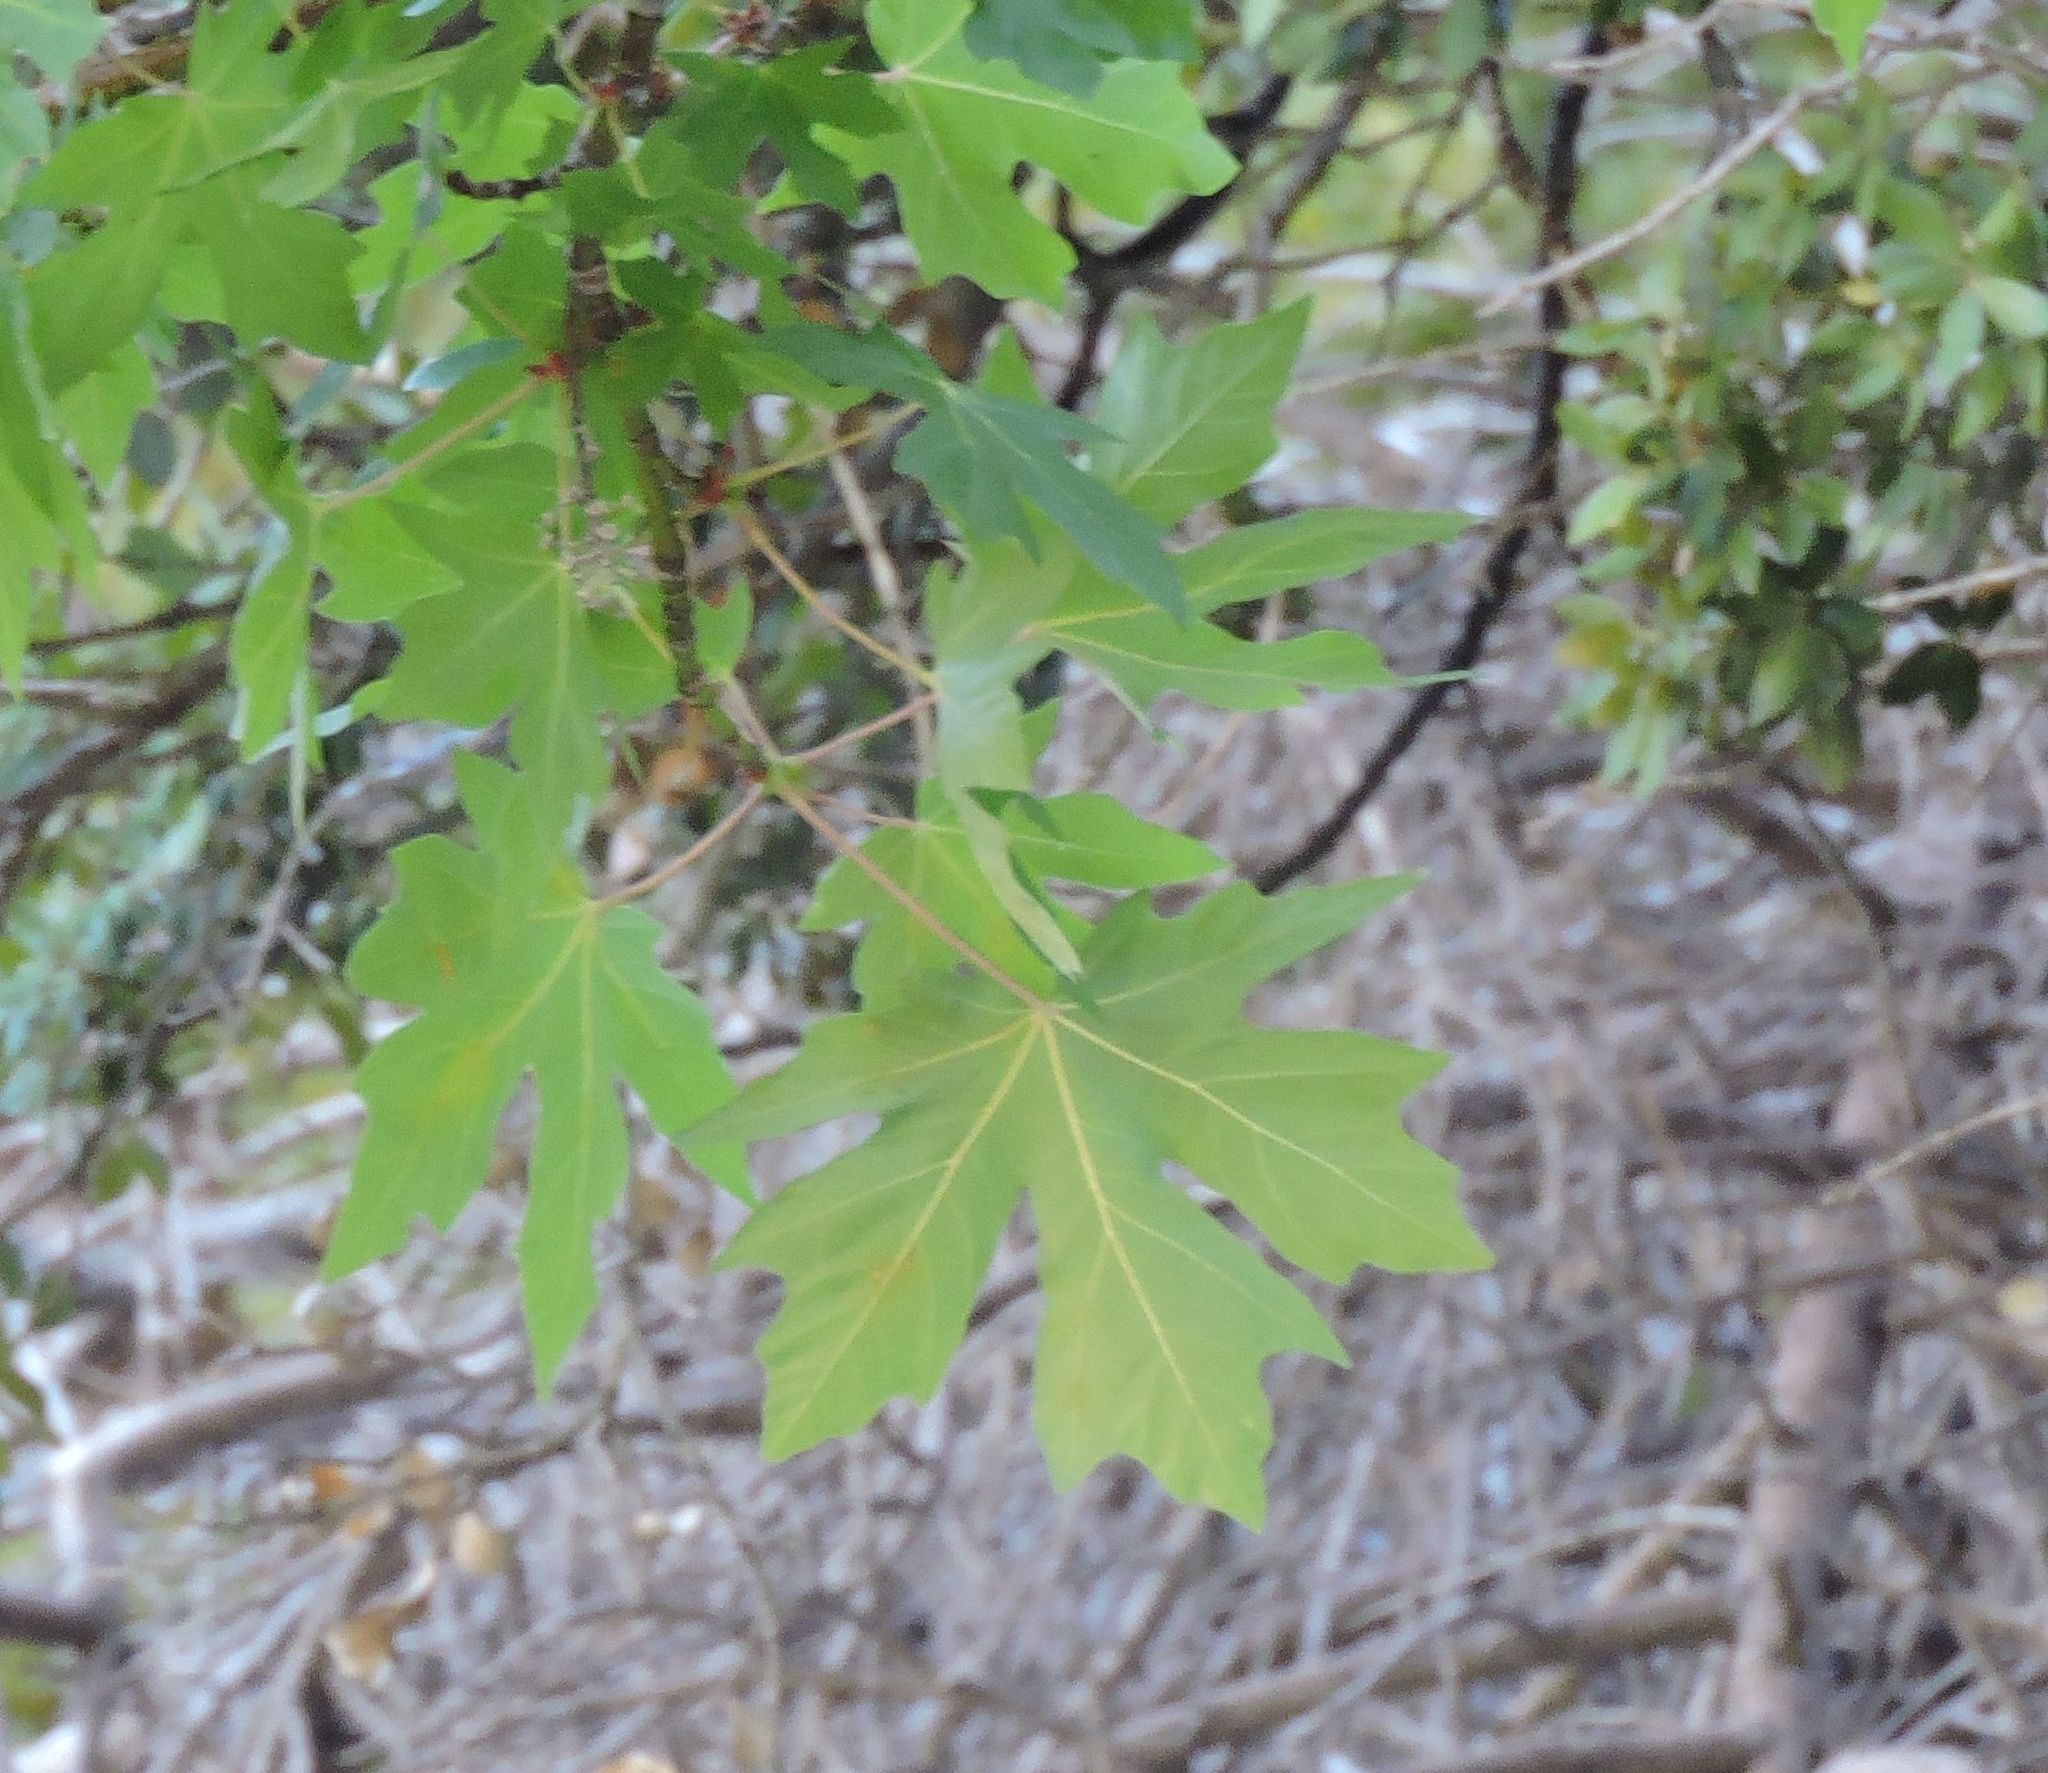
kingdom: Plantae
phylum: Tracheophyta
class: Magnoliopsida
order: Sapindales
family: Sapindaceae
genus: Acer
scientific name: Acer macrophyllum
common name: Oregon maple
